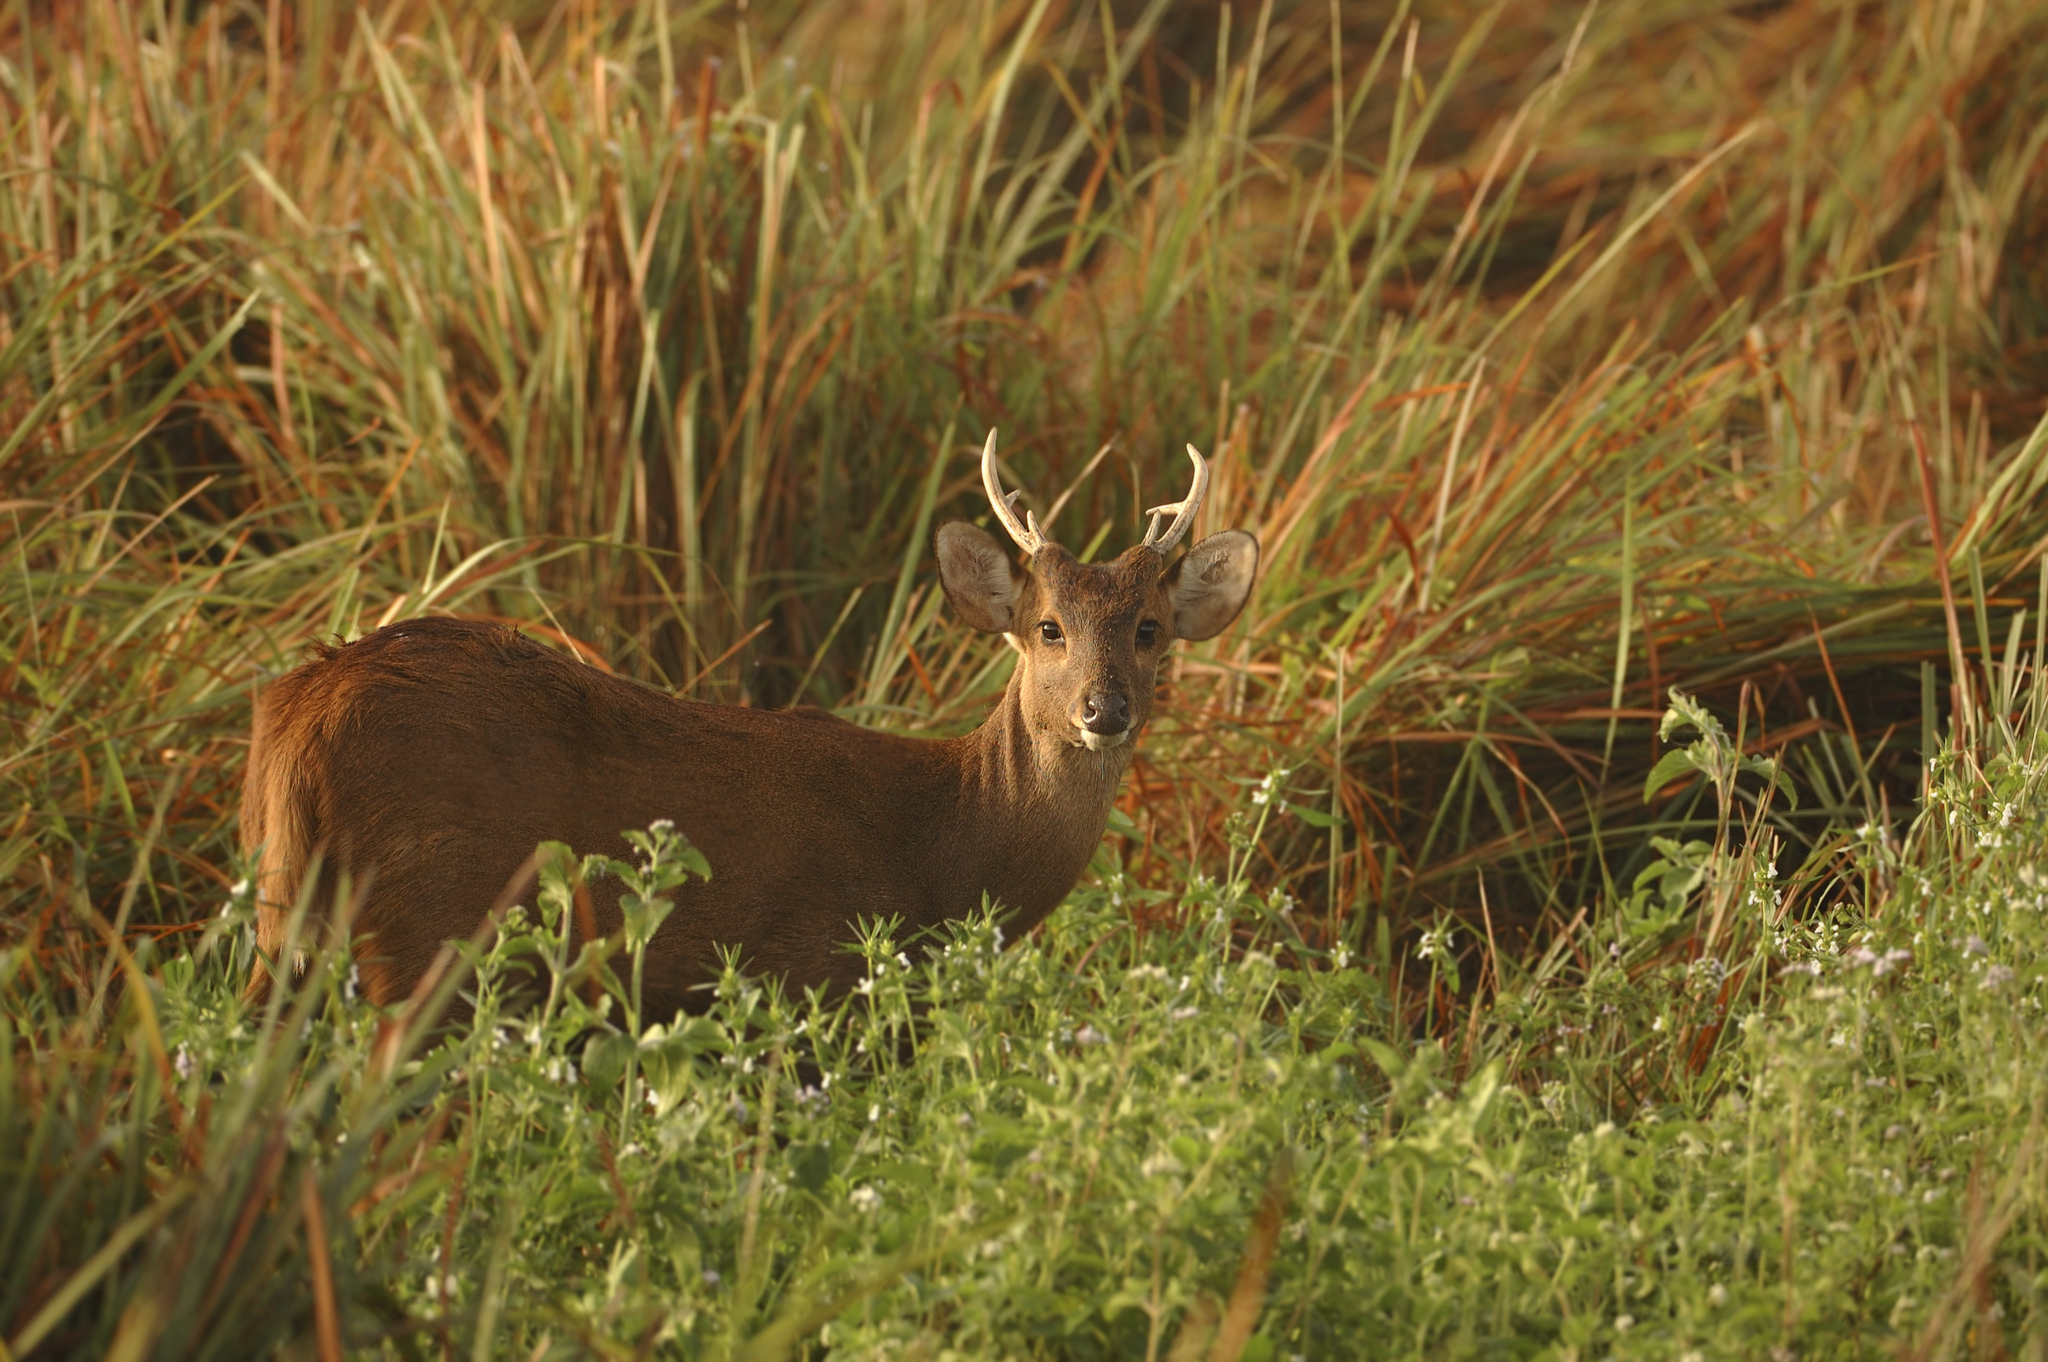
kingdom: Animalia
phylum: Chordata
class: Mammalia
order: Artiodactyla
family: Cervidae
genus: Axis
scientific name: Axis porcinus
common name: Hog deer
